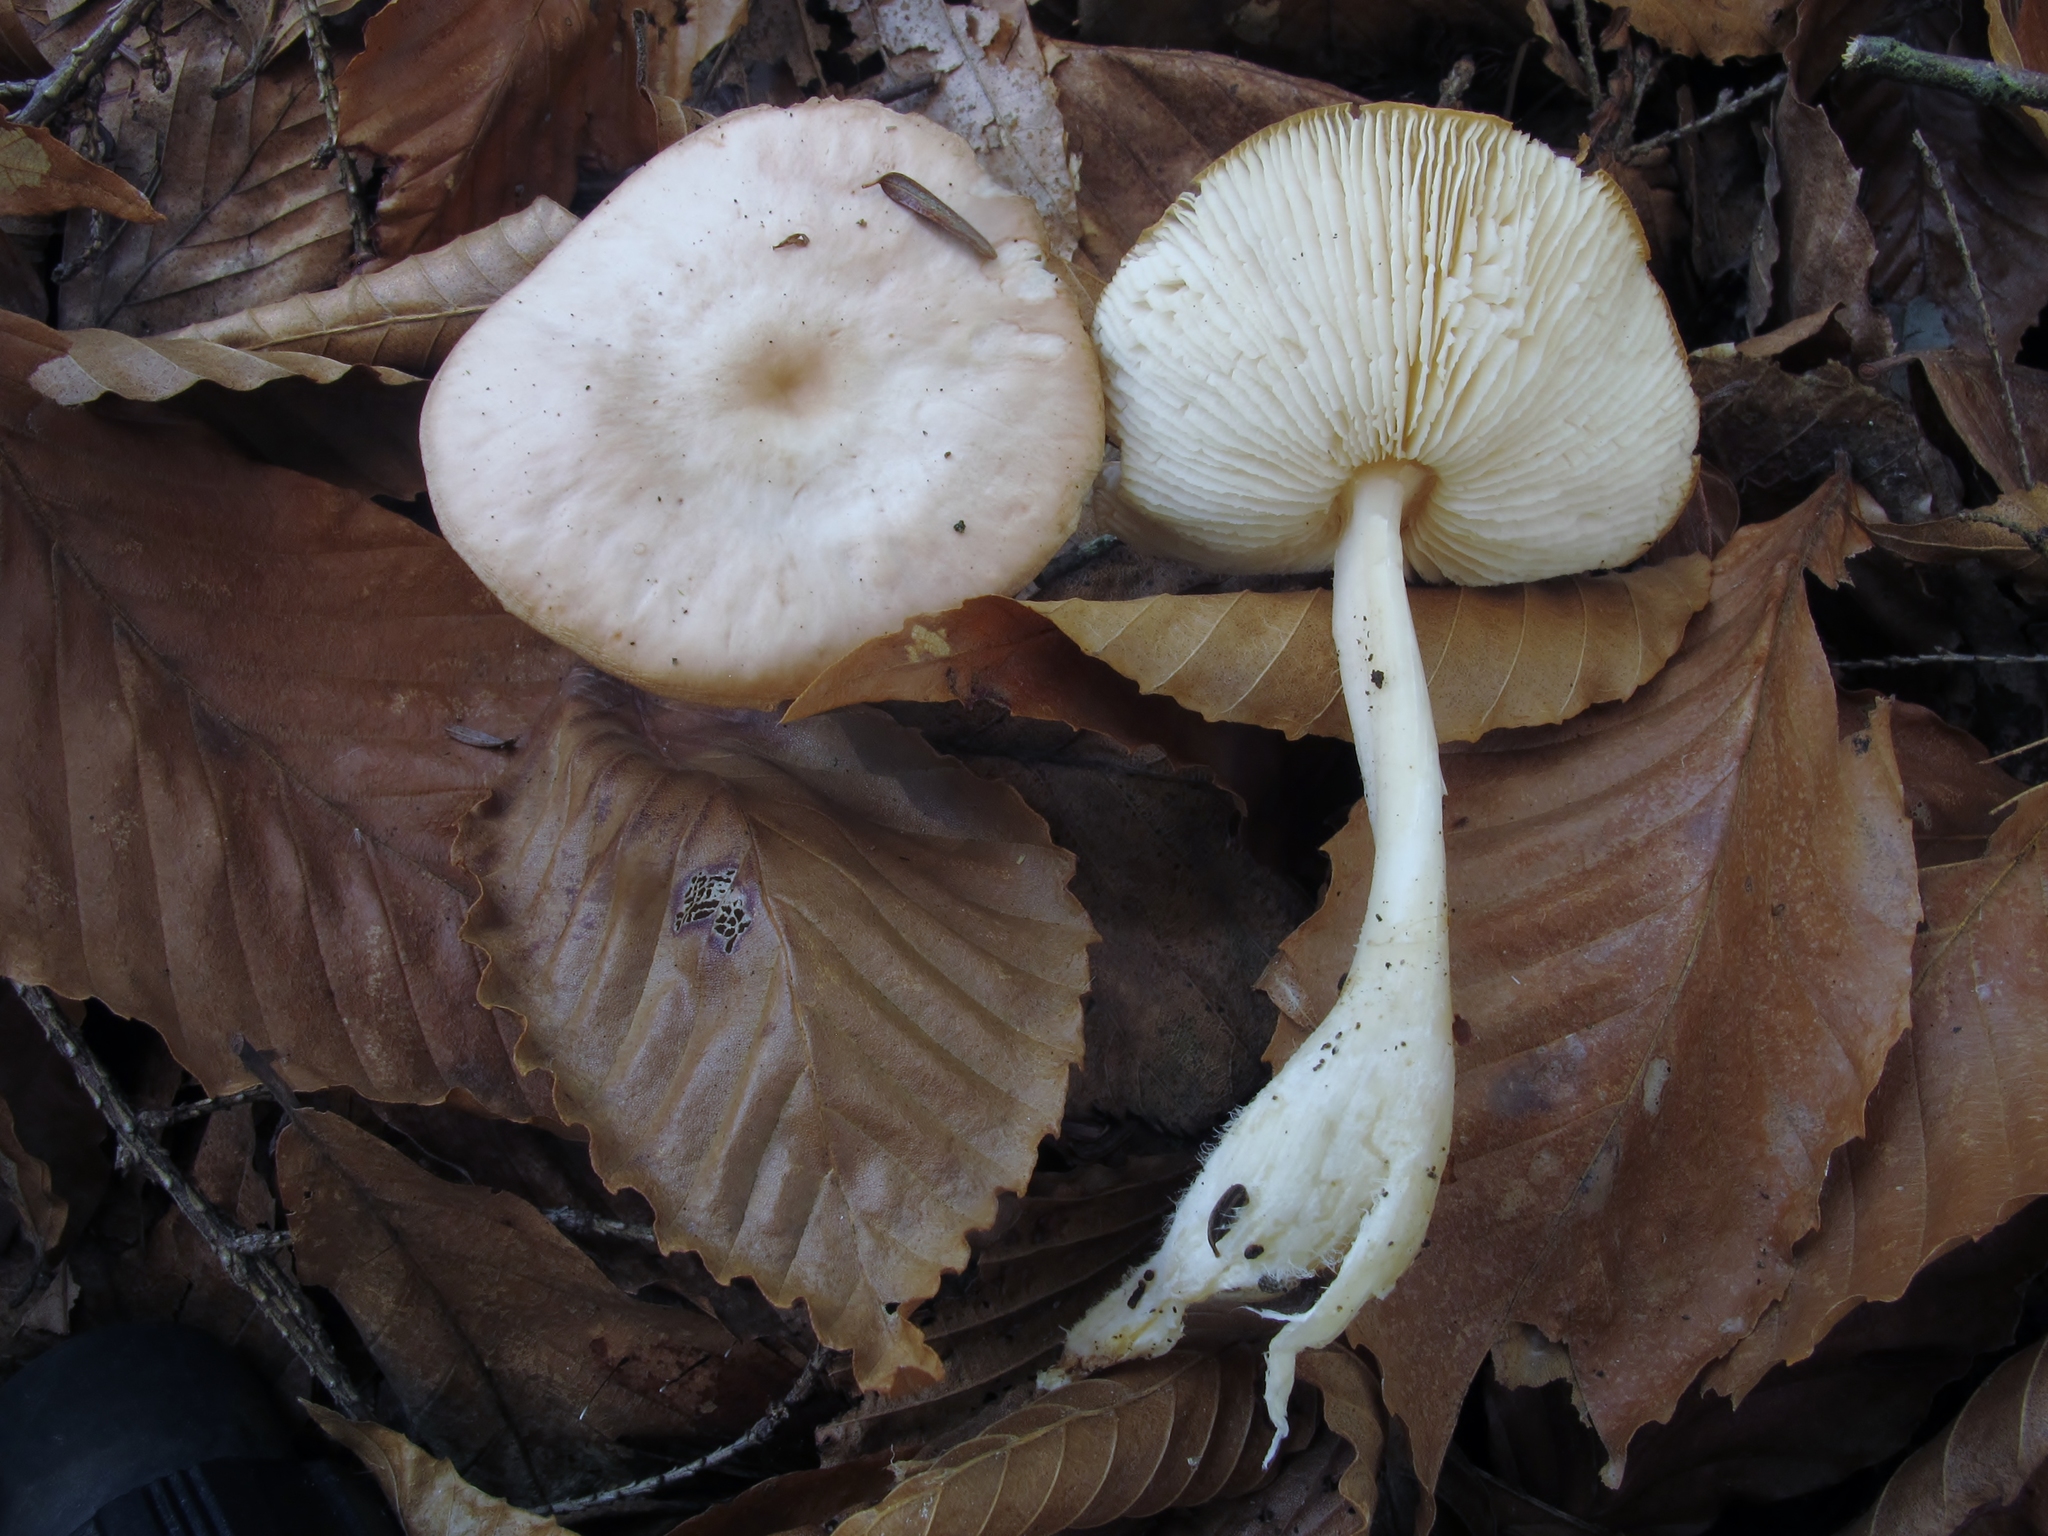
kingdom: Fungi
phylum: Basidiomycota
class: Agaricomycetes
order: Agaricales
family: Omphalotaceae
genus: Rhodocollybia
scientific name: Rhodocollybia butyracea
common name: Butter cap
